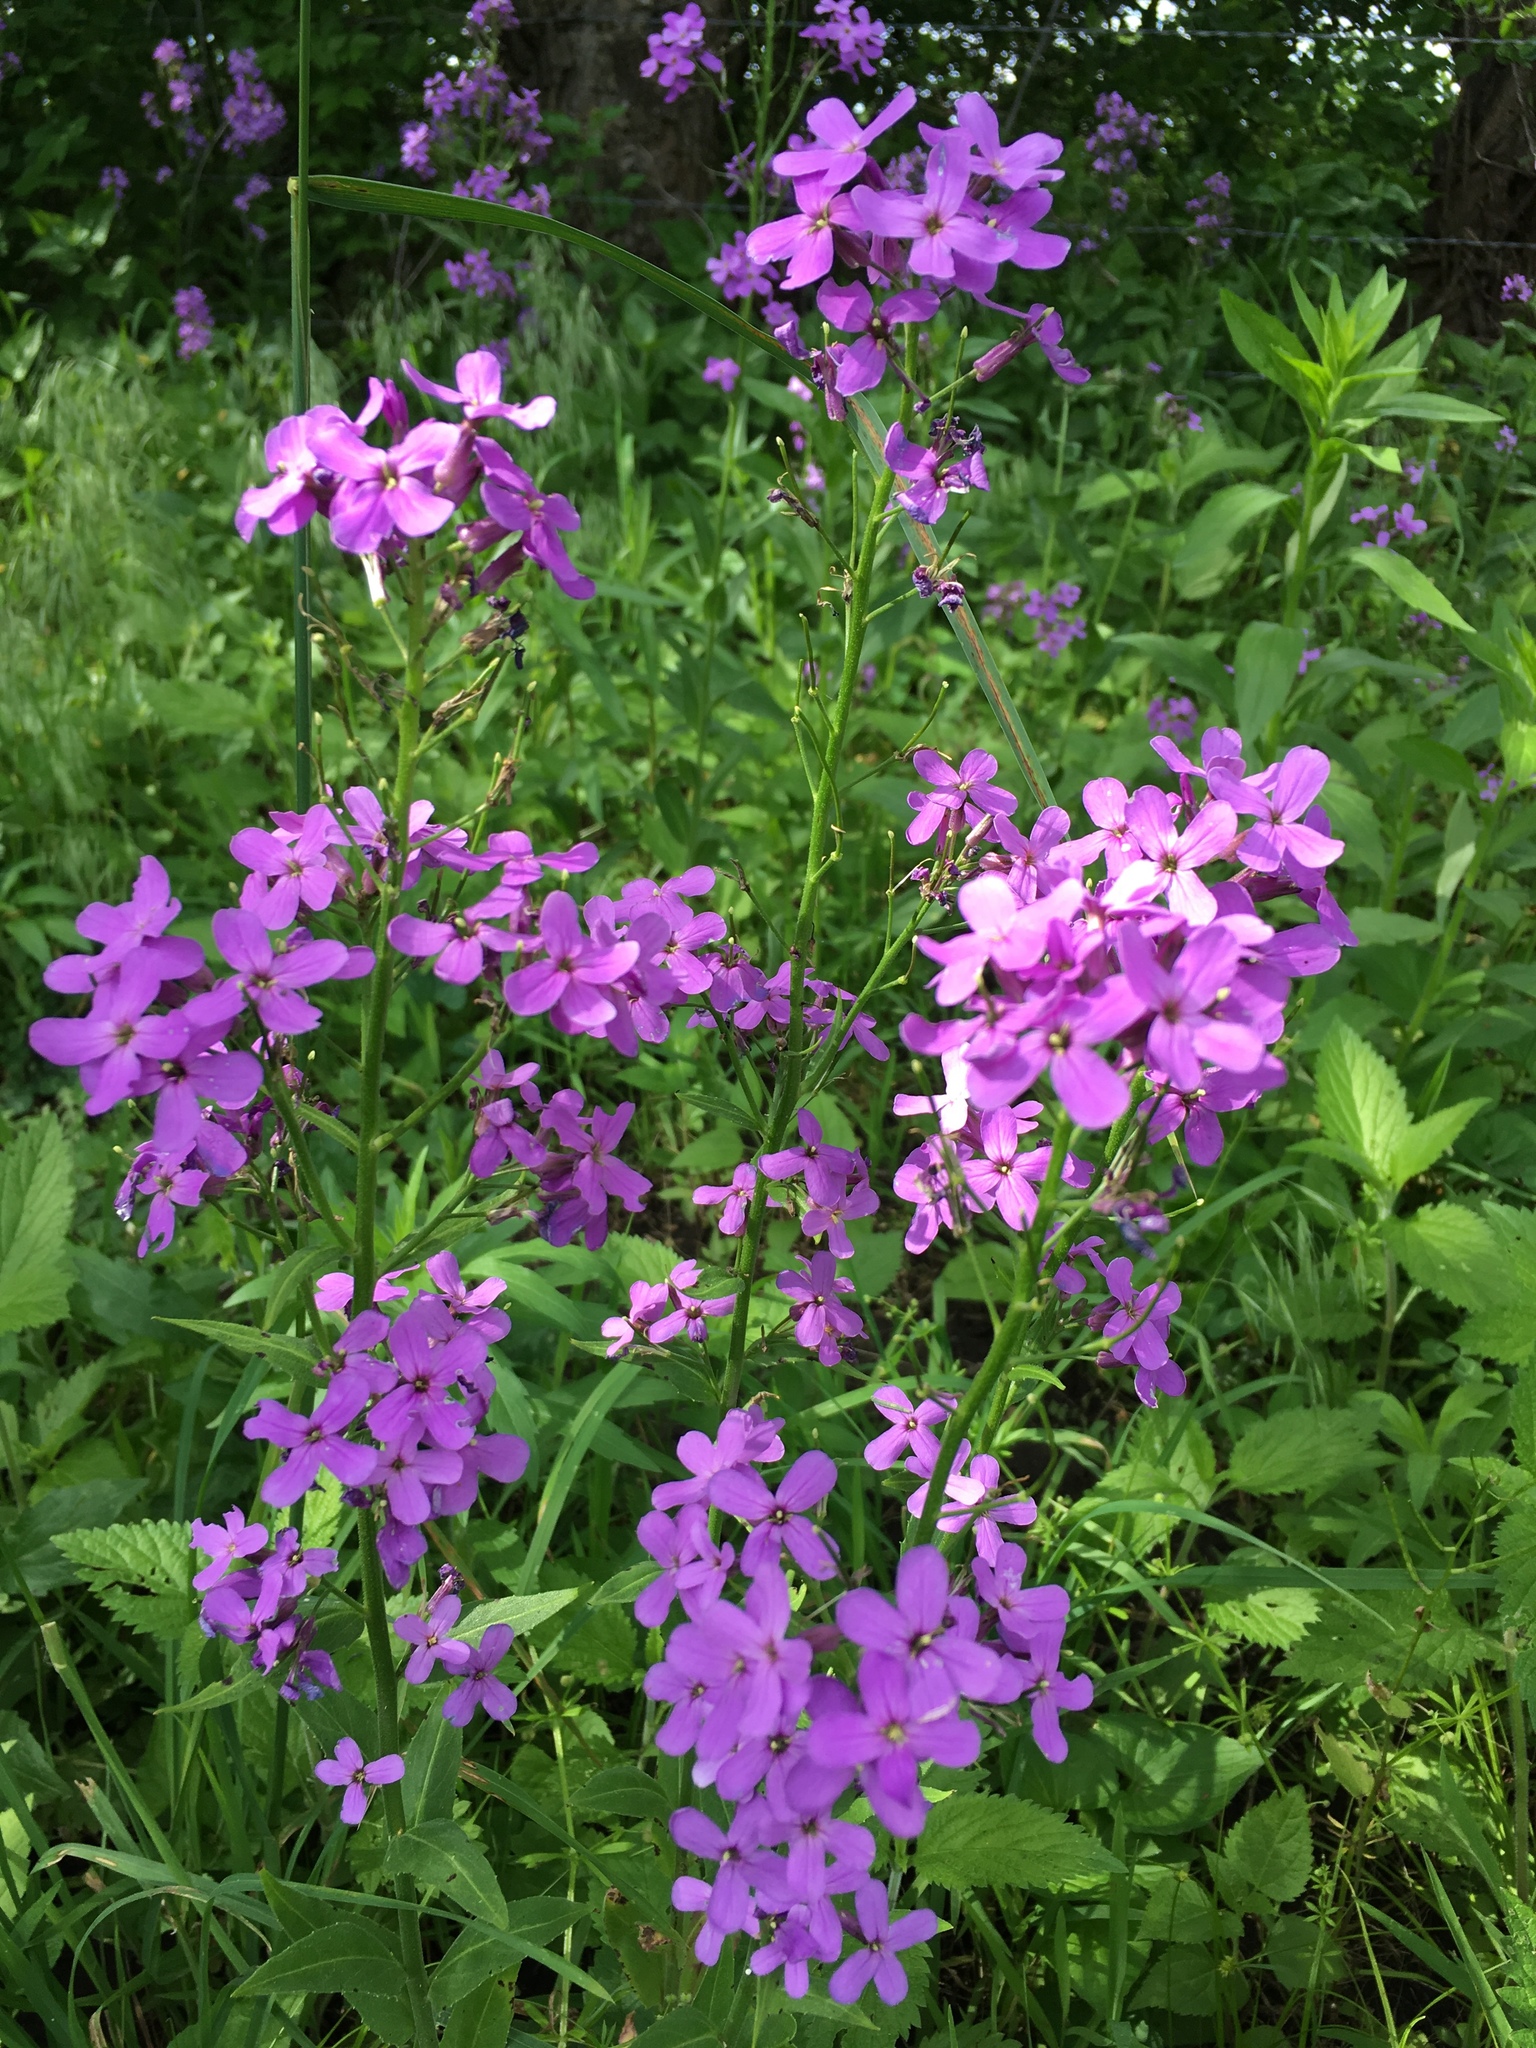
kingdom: Plantae
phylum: Tracheophyta
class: Magnoliopsida
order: Brassicales
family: Brassicaceae
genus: Hesperis
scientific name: Hesperis matronalis
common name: Dame's-violet
